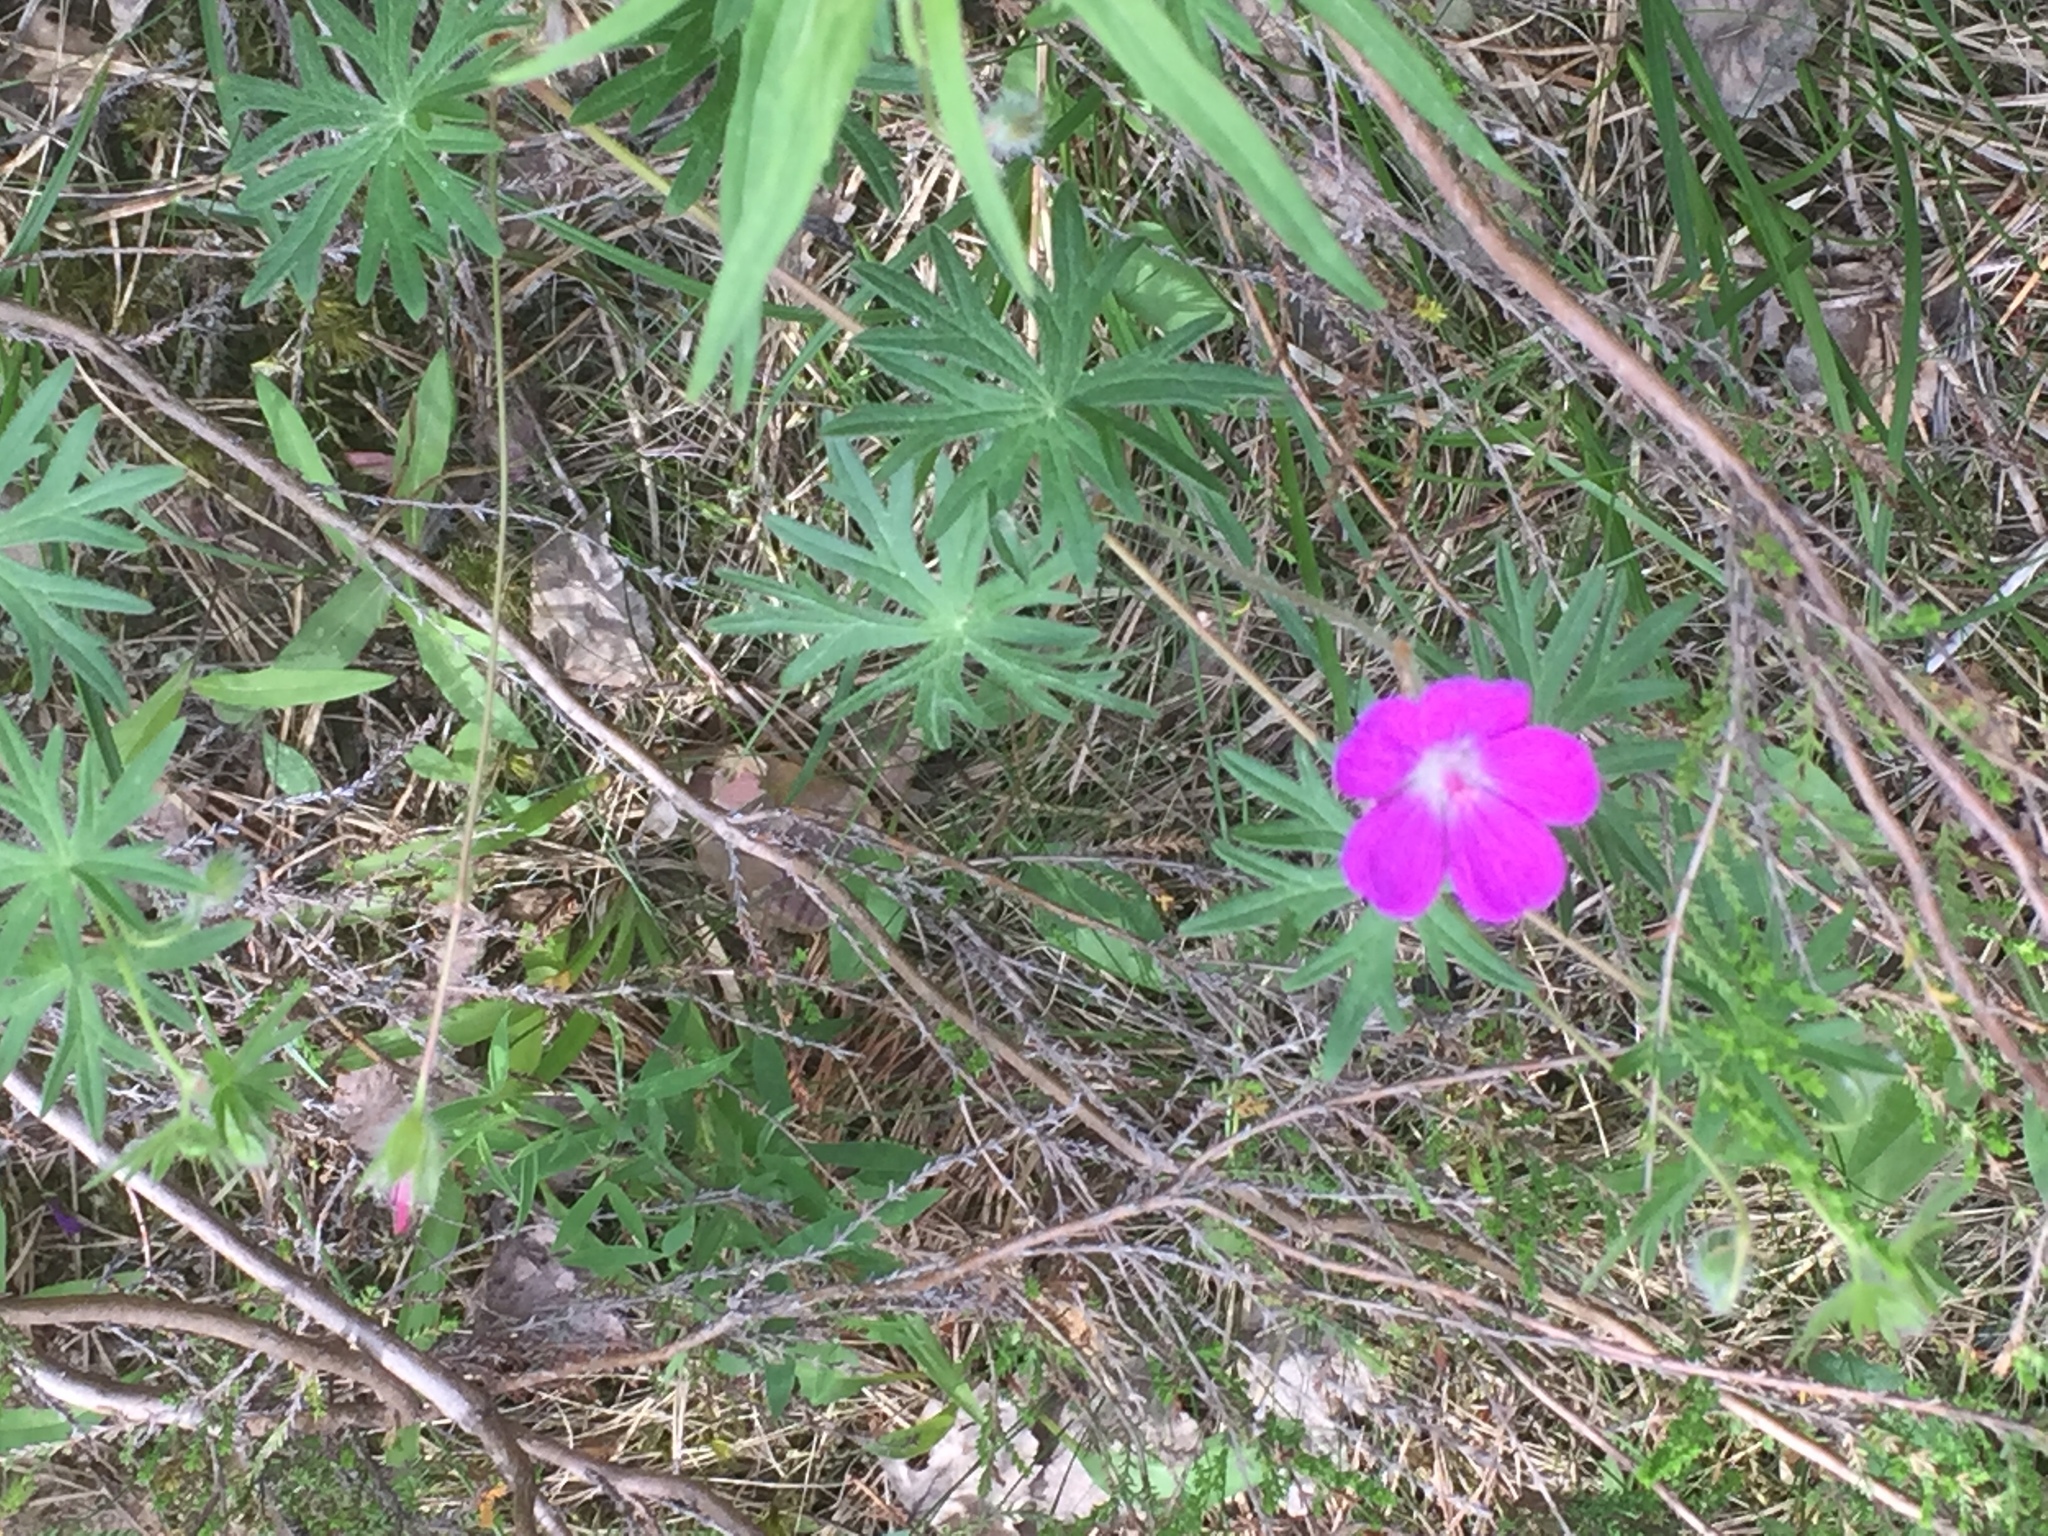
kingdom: Plantae
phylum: Tracheophyta
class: Magnoliopsida
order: Geraniales
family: Geraniaceae
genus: Geranium
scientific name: Geranium sanguineum
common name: Bloody crane's-bill
